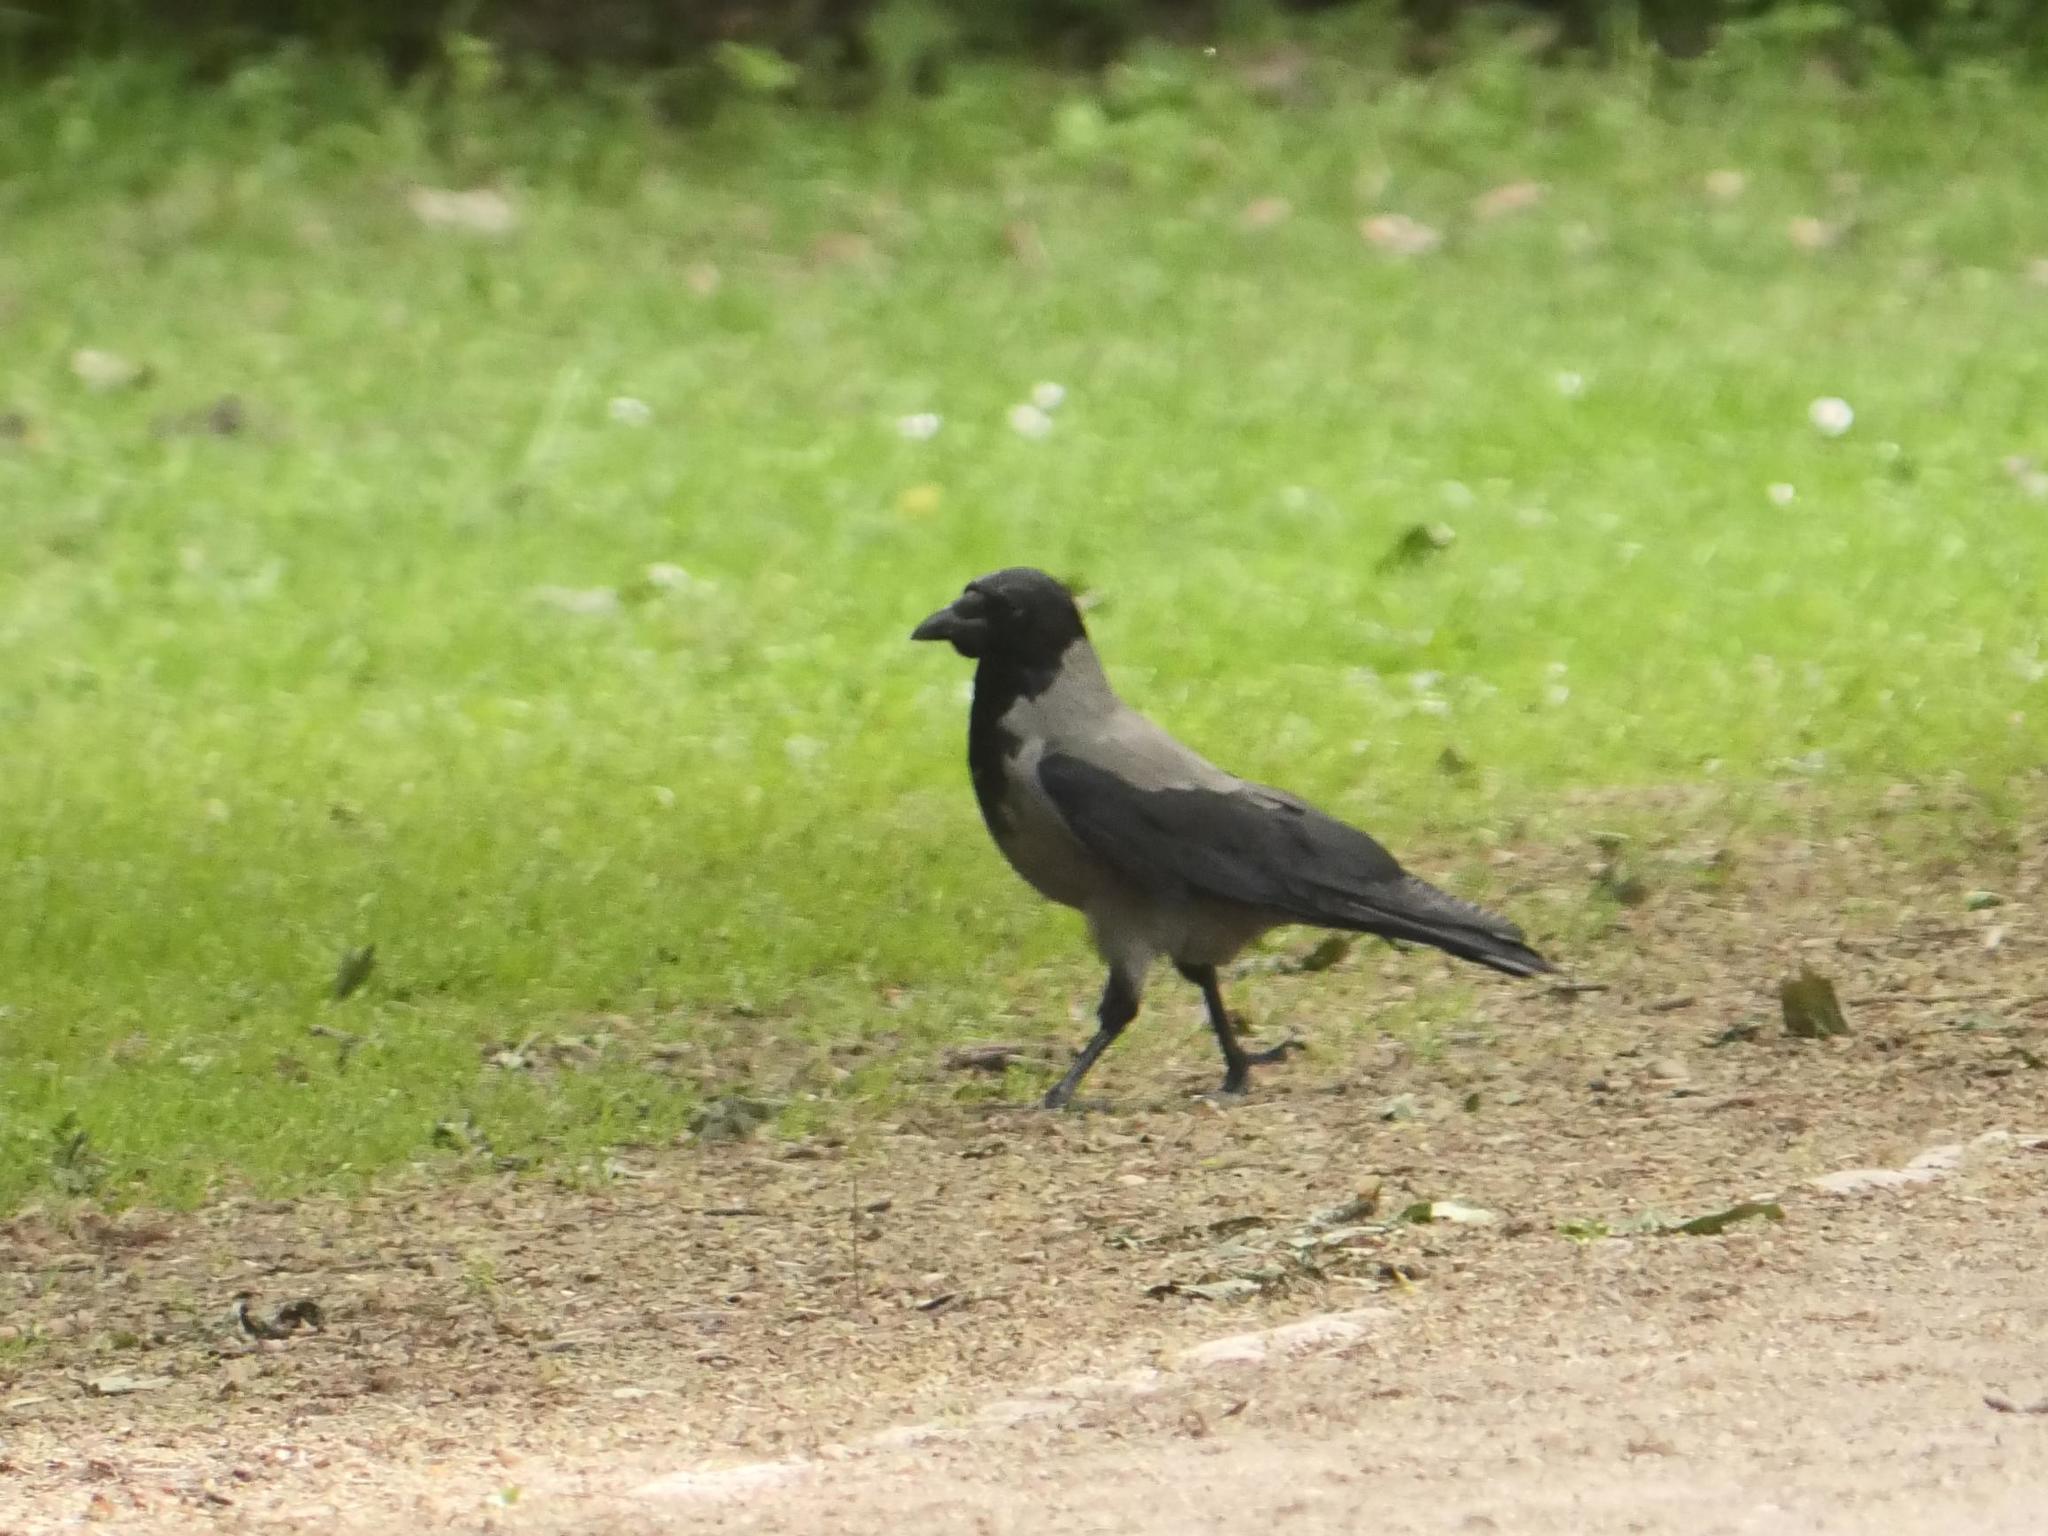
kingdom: Animalia
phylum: Chordata
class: Aves
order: Passeriformes
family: Corvidae
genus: Corvus
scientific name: Corvus cornix
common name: Hooded crow
